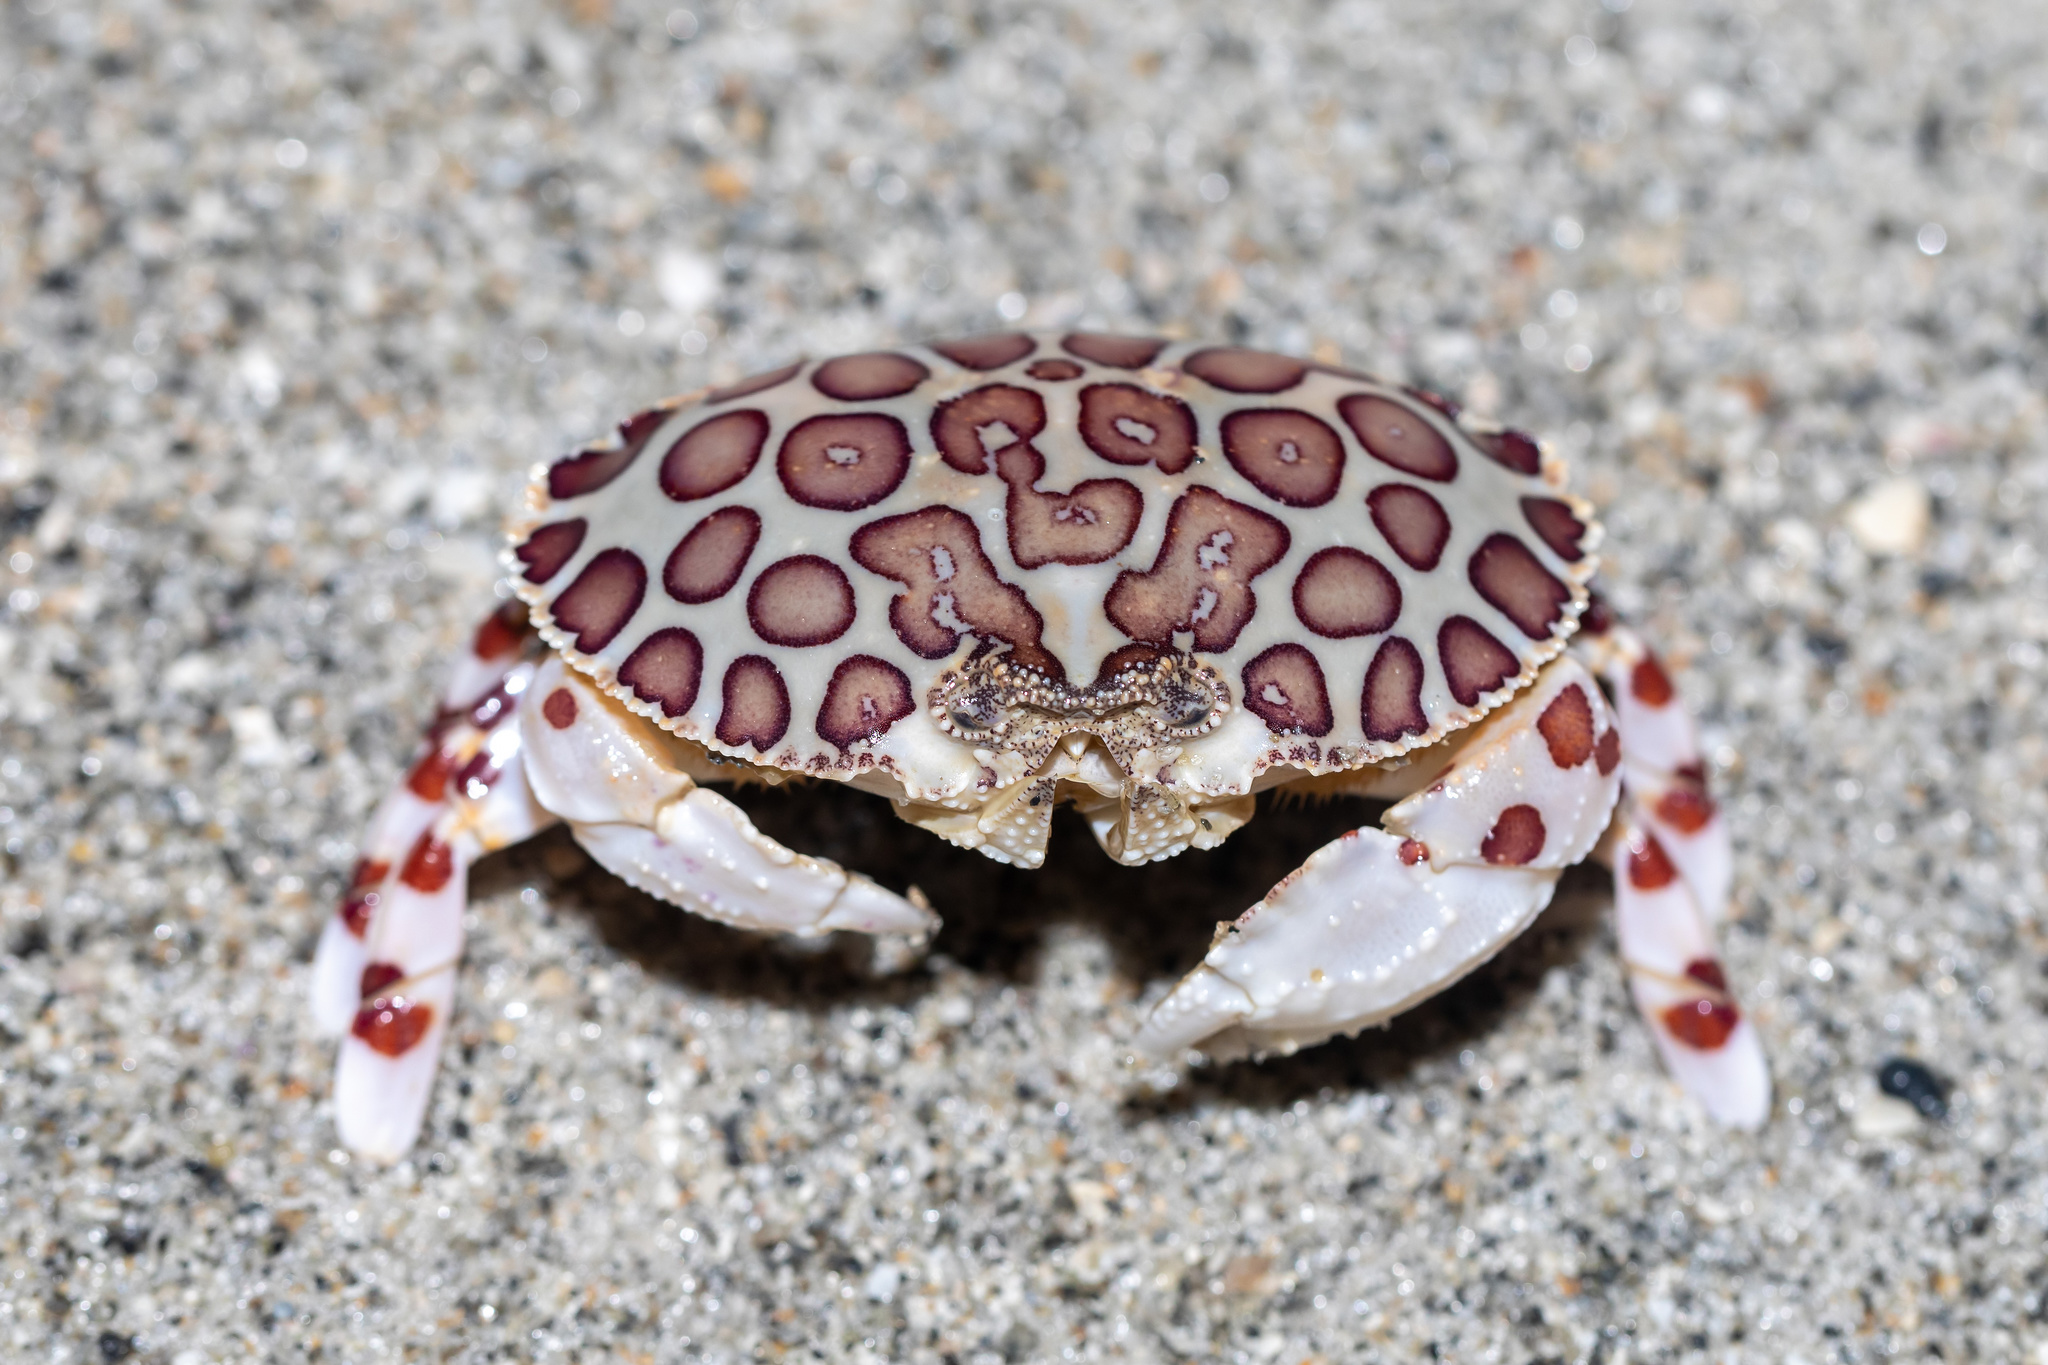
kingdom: Animalia
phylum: Arthropoda
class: Malacostraca
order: Decapoda
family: Aethridae
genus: Hepatus
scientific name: Hepatus epheliticus
